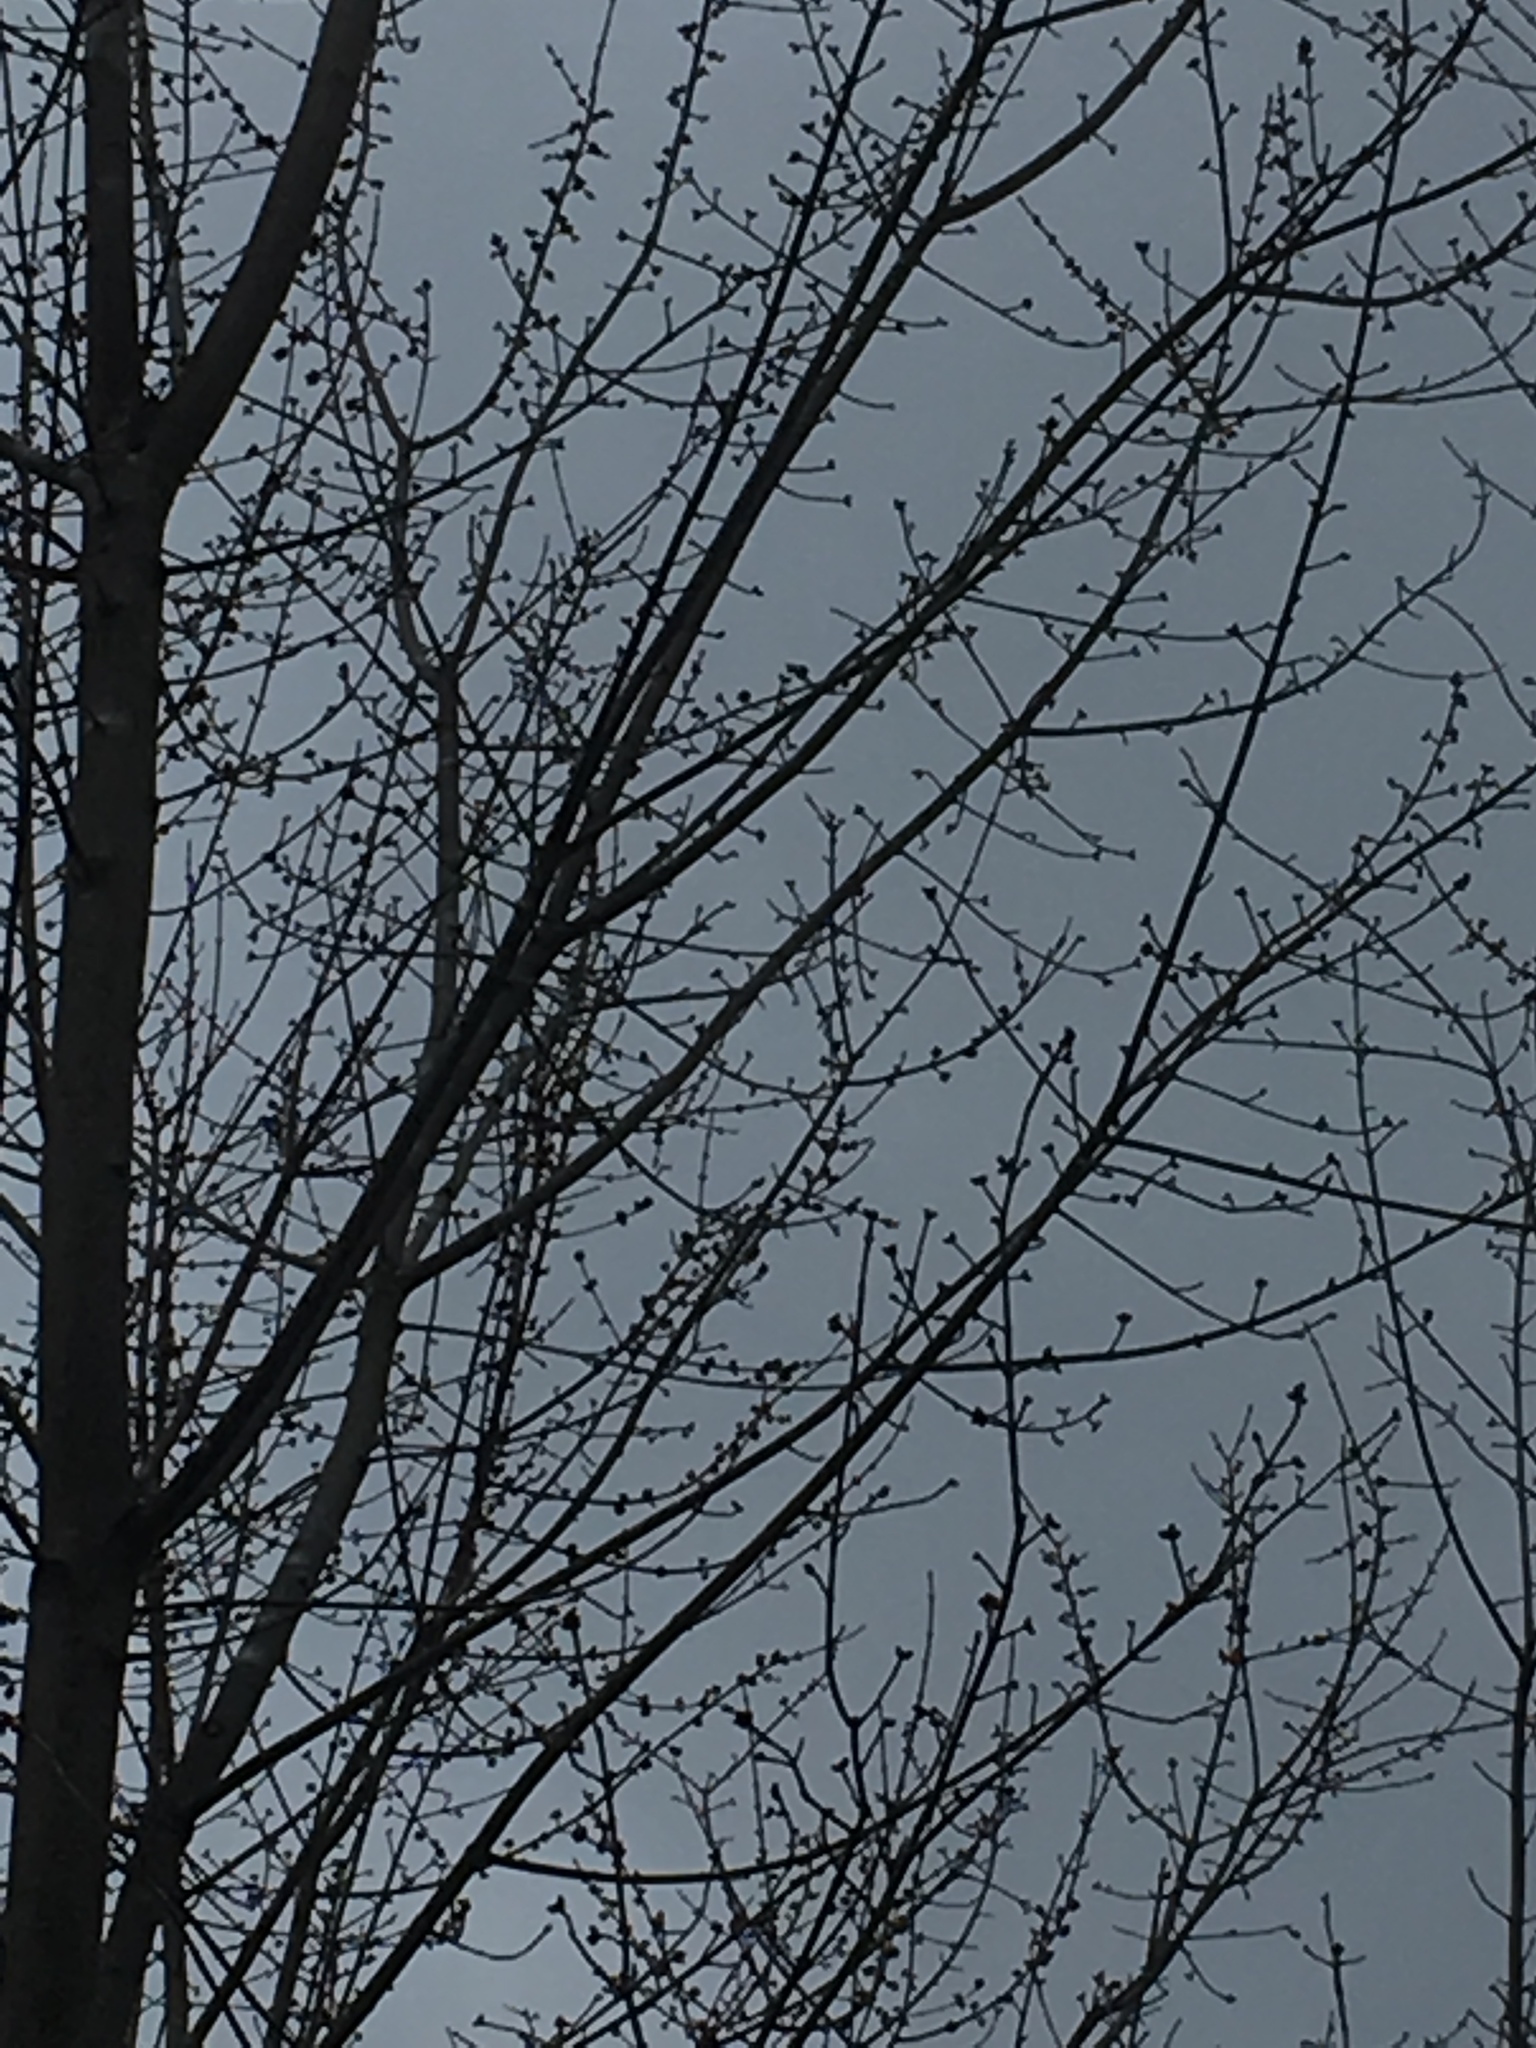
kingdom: Plantae
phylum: Tracheophyta
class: Magnoliopsida
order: Sapindales
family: Sapindaceae
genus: Acer
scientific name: Acer rubrum
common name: Red maple
